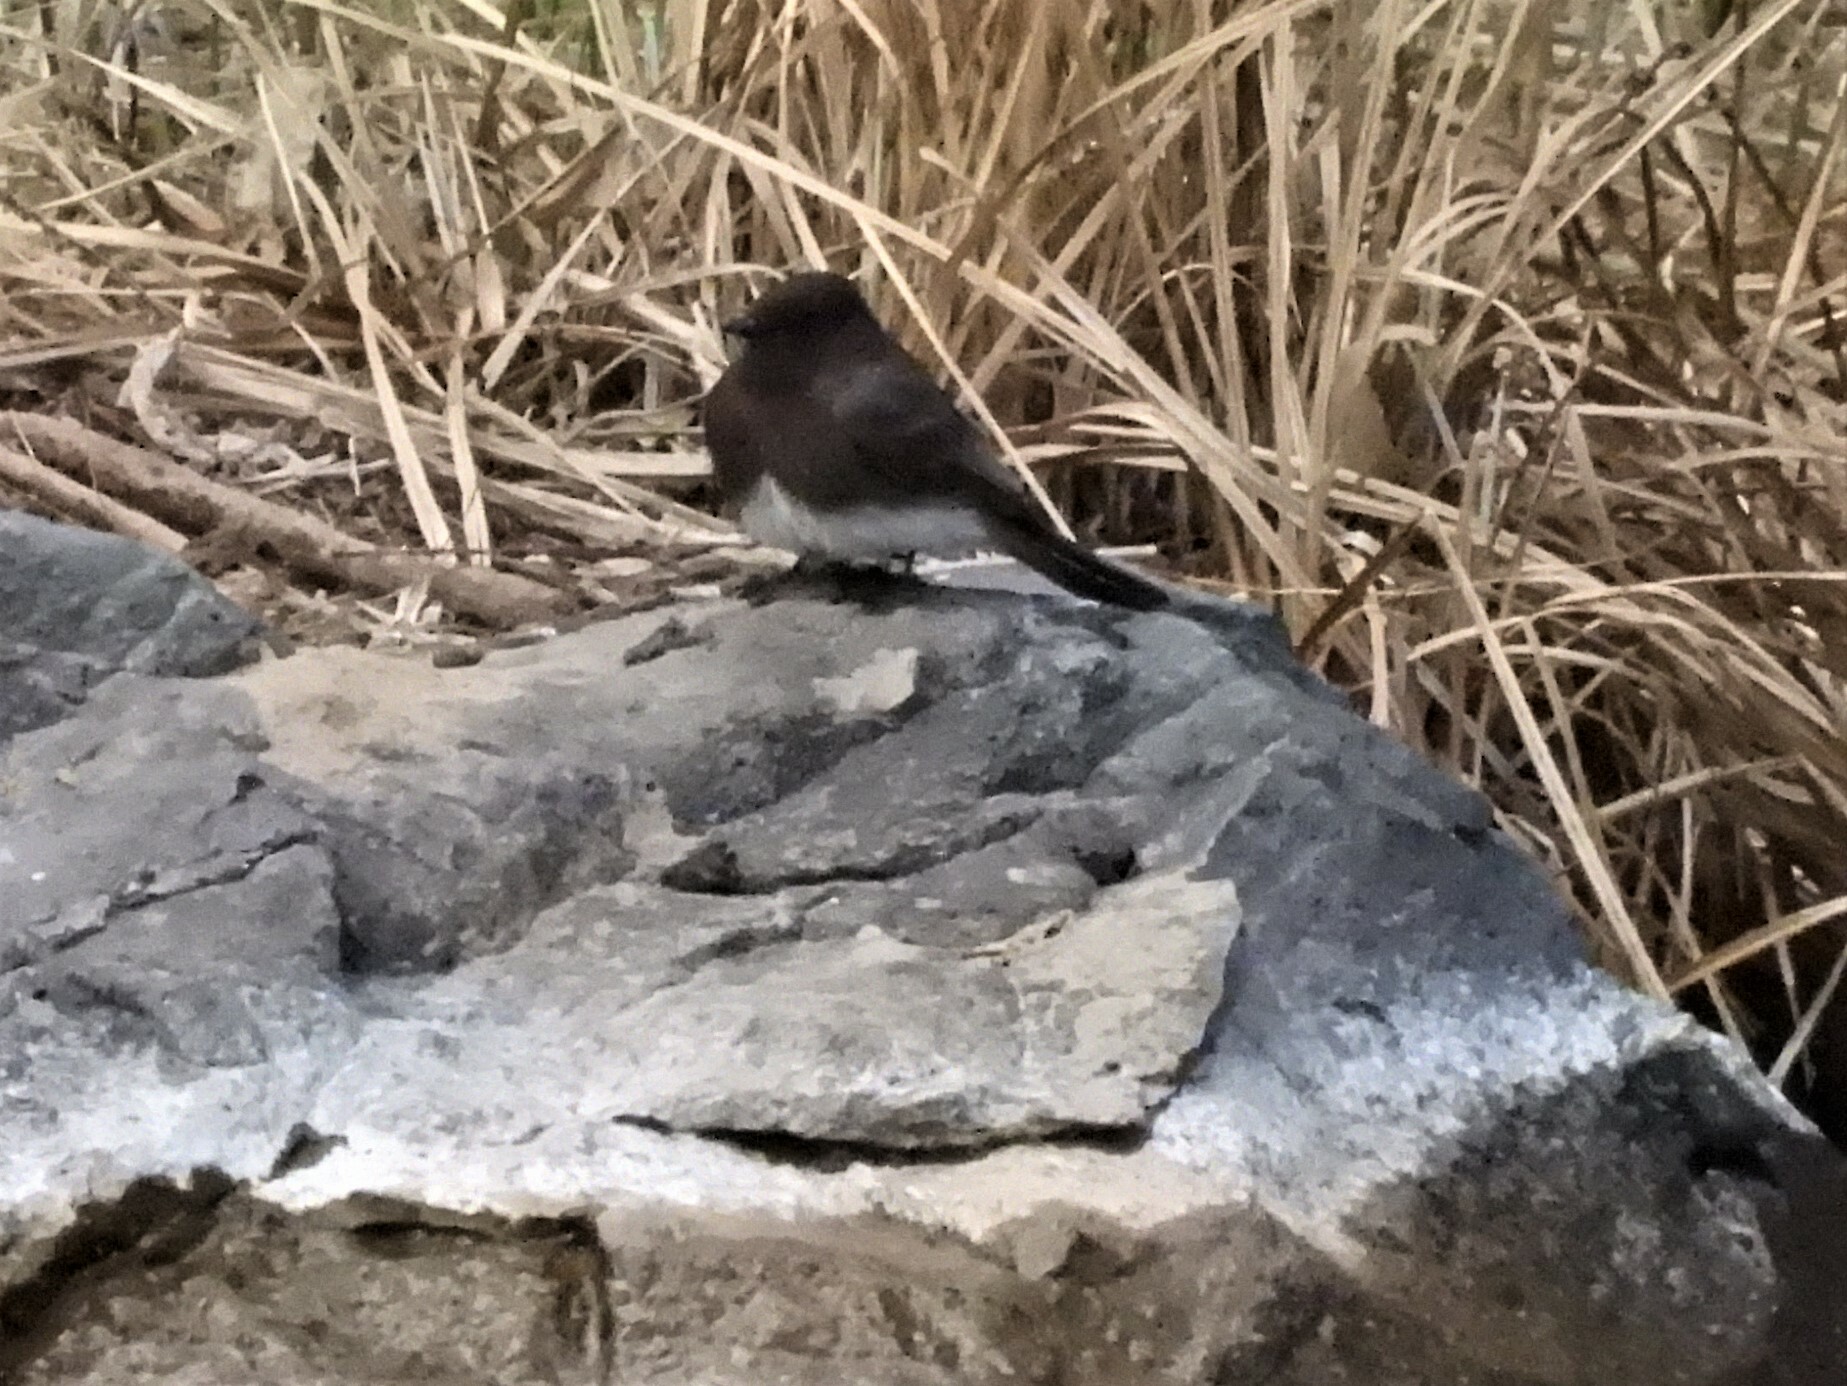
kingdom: Animalia
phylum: Chordata
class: Aves
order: Passeriformes
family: Tyrannidae
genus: Sayornis
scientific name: Sayornis nigricans
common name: Black phoebe
